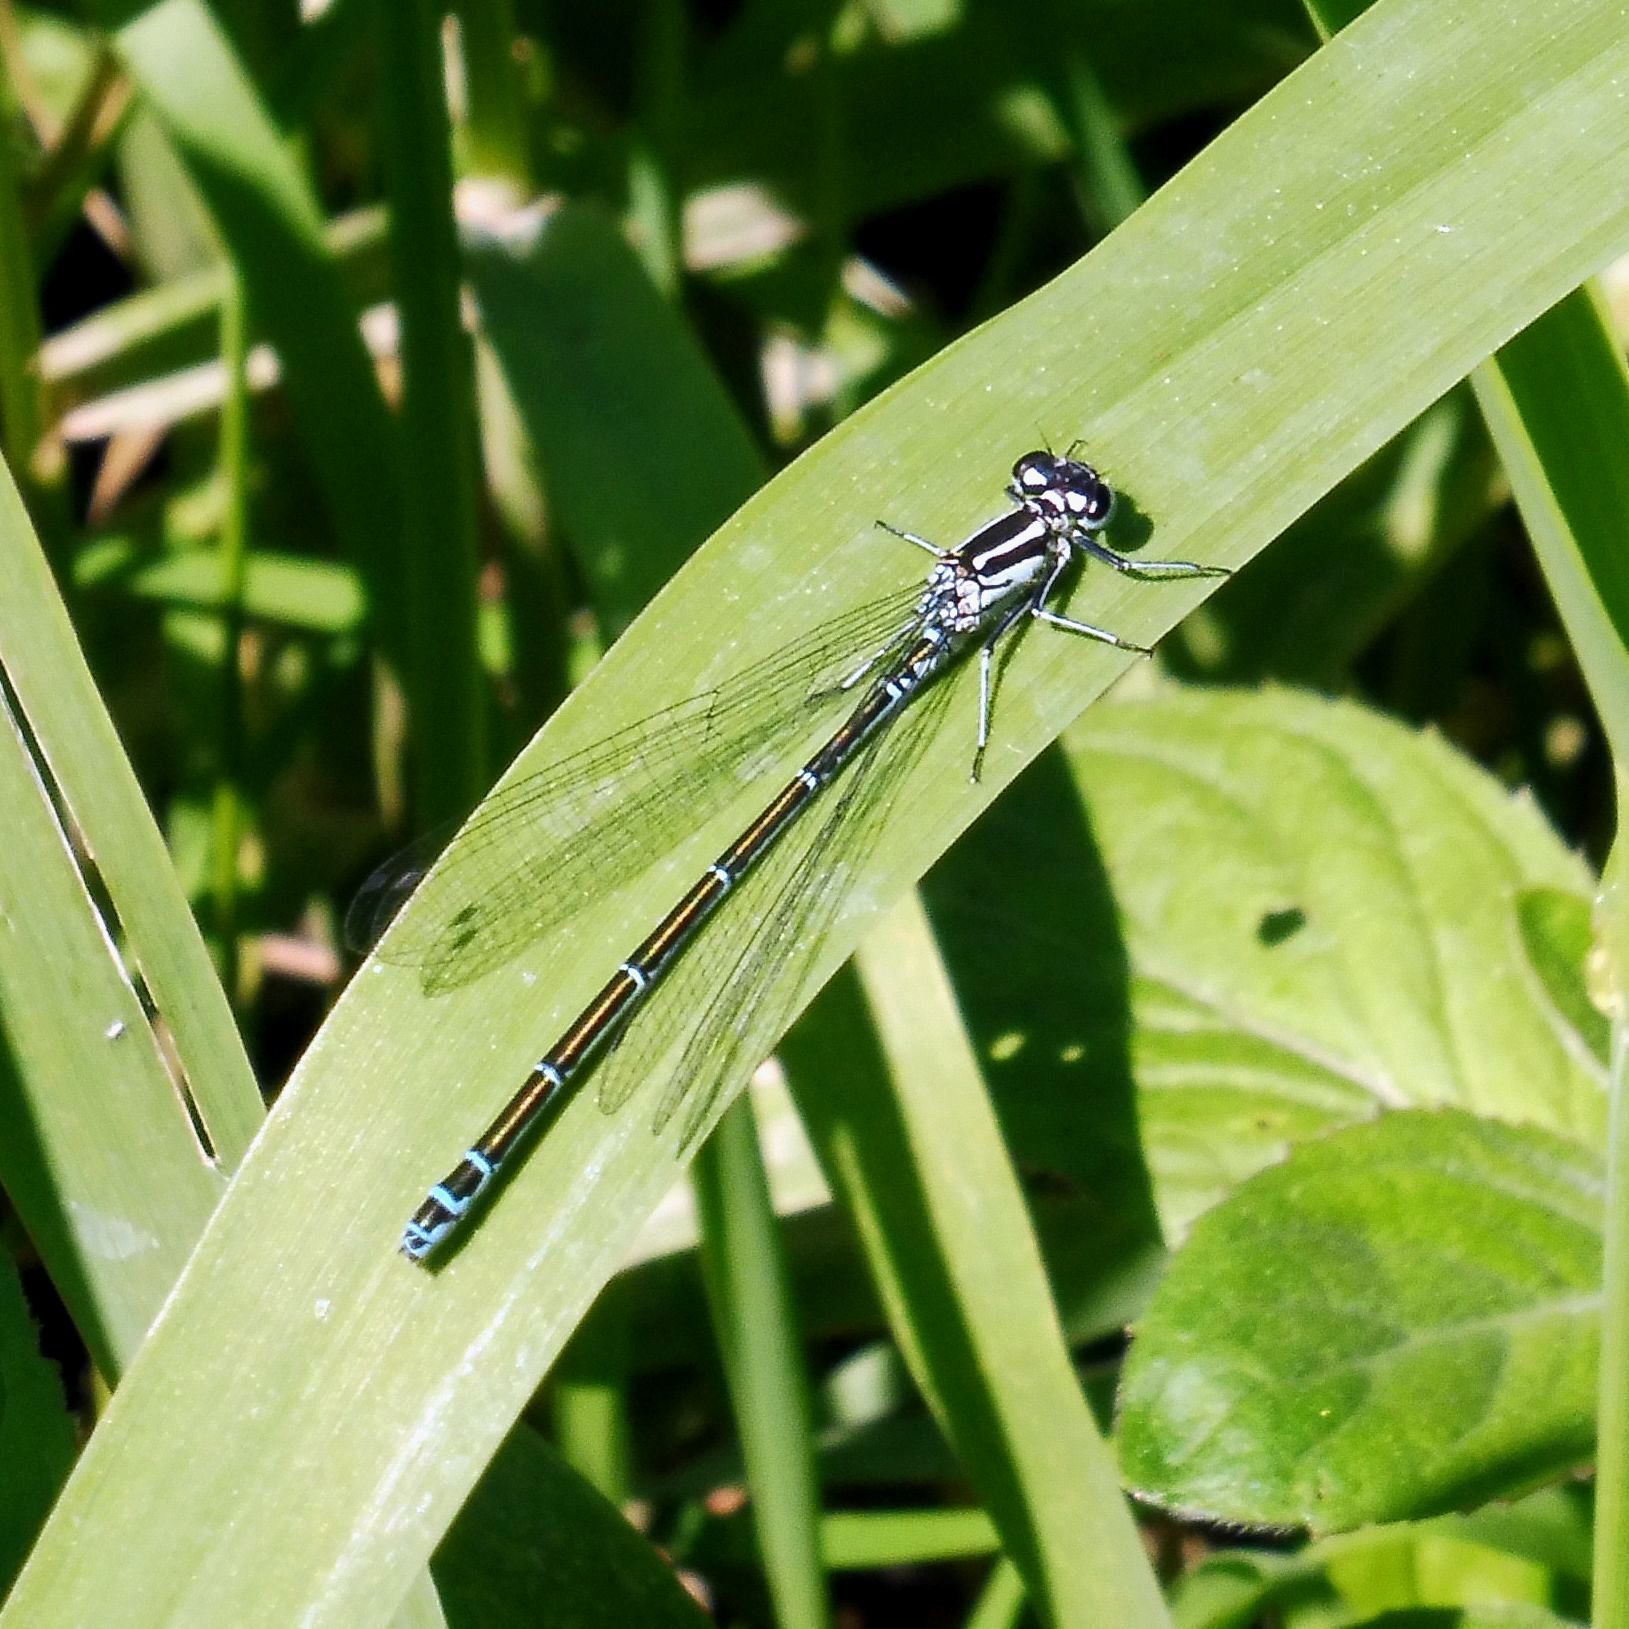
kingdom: Animalia
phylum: Arthropoda
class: Insecta
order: Odonata
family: Coenagrionidae
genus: Coenagrion
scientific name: Coenagrion puella
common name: Azure damselfly
